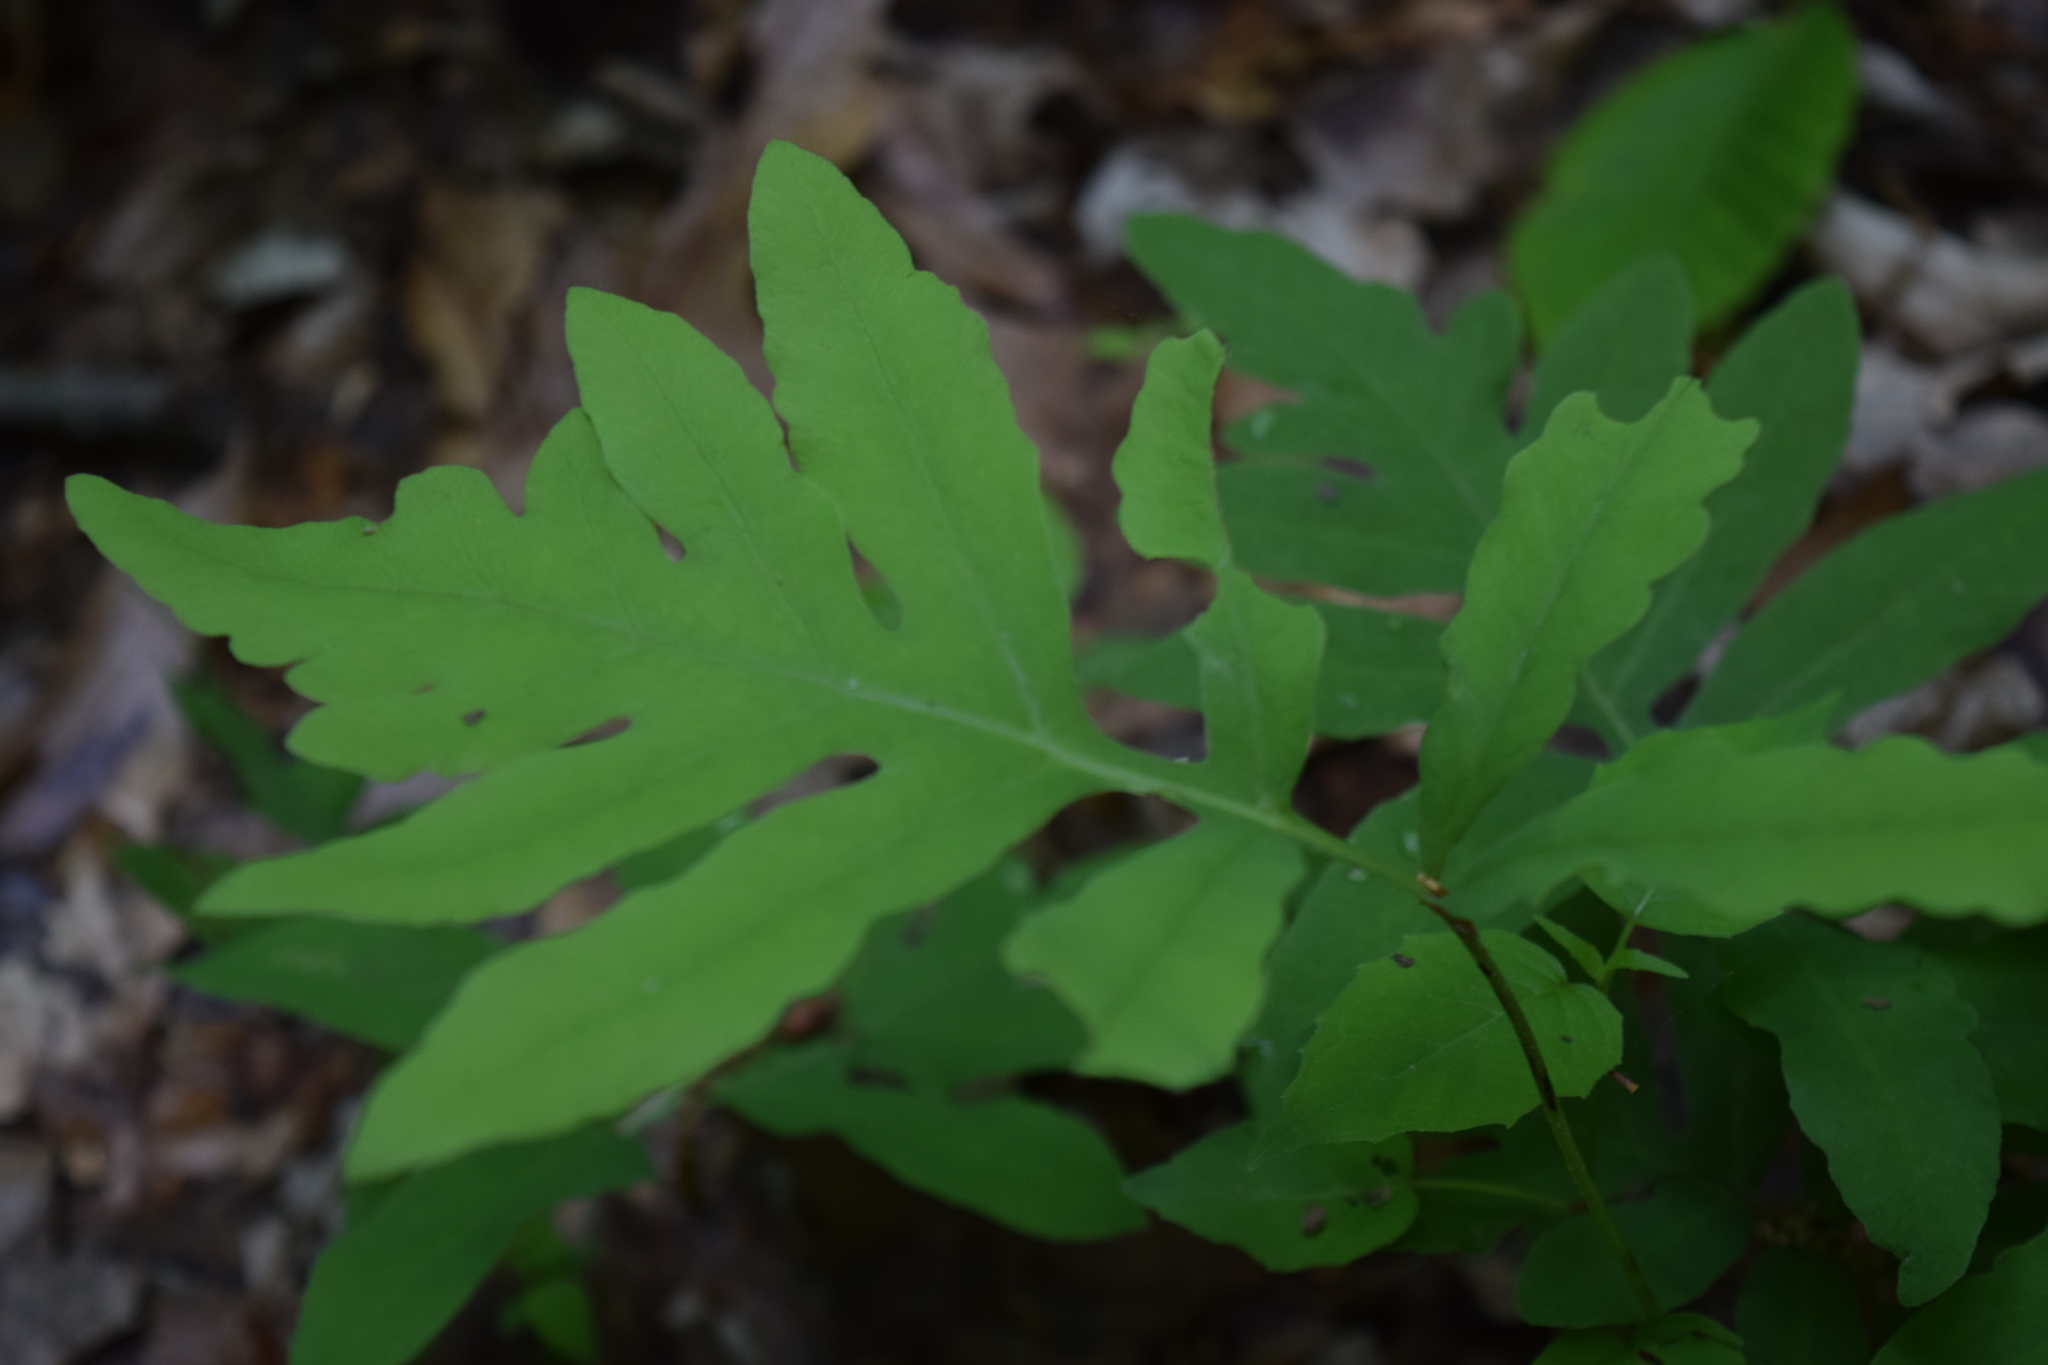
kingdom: Plantae
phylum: Tracheophyta
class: Polypodiopsida
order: Polypodiales
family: Onocleaceae
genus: Onoclea
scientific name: Onoclea sensibilis
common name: Sensitive fern
